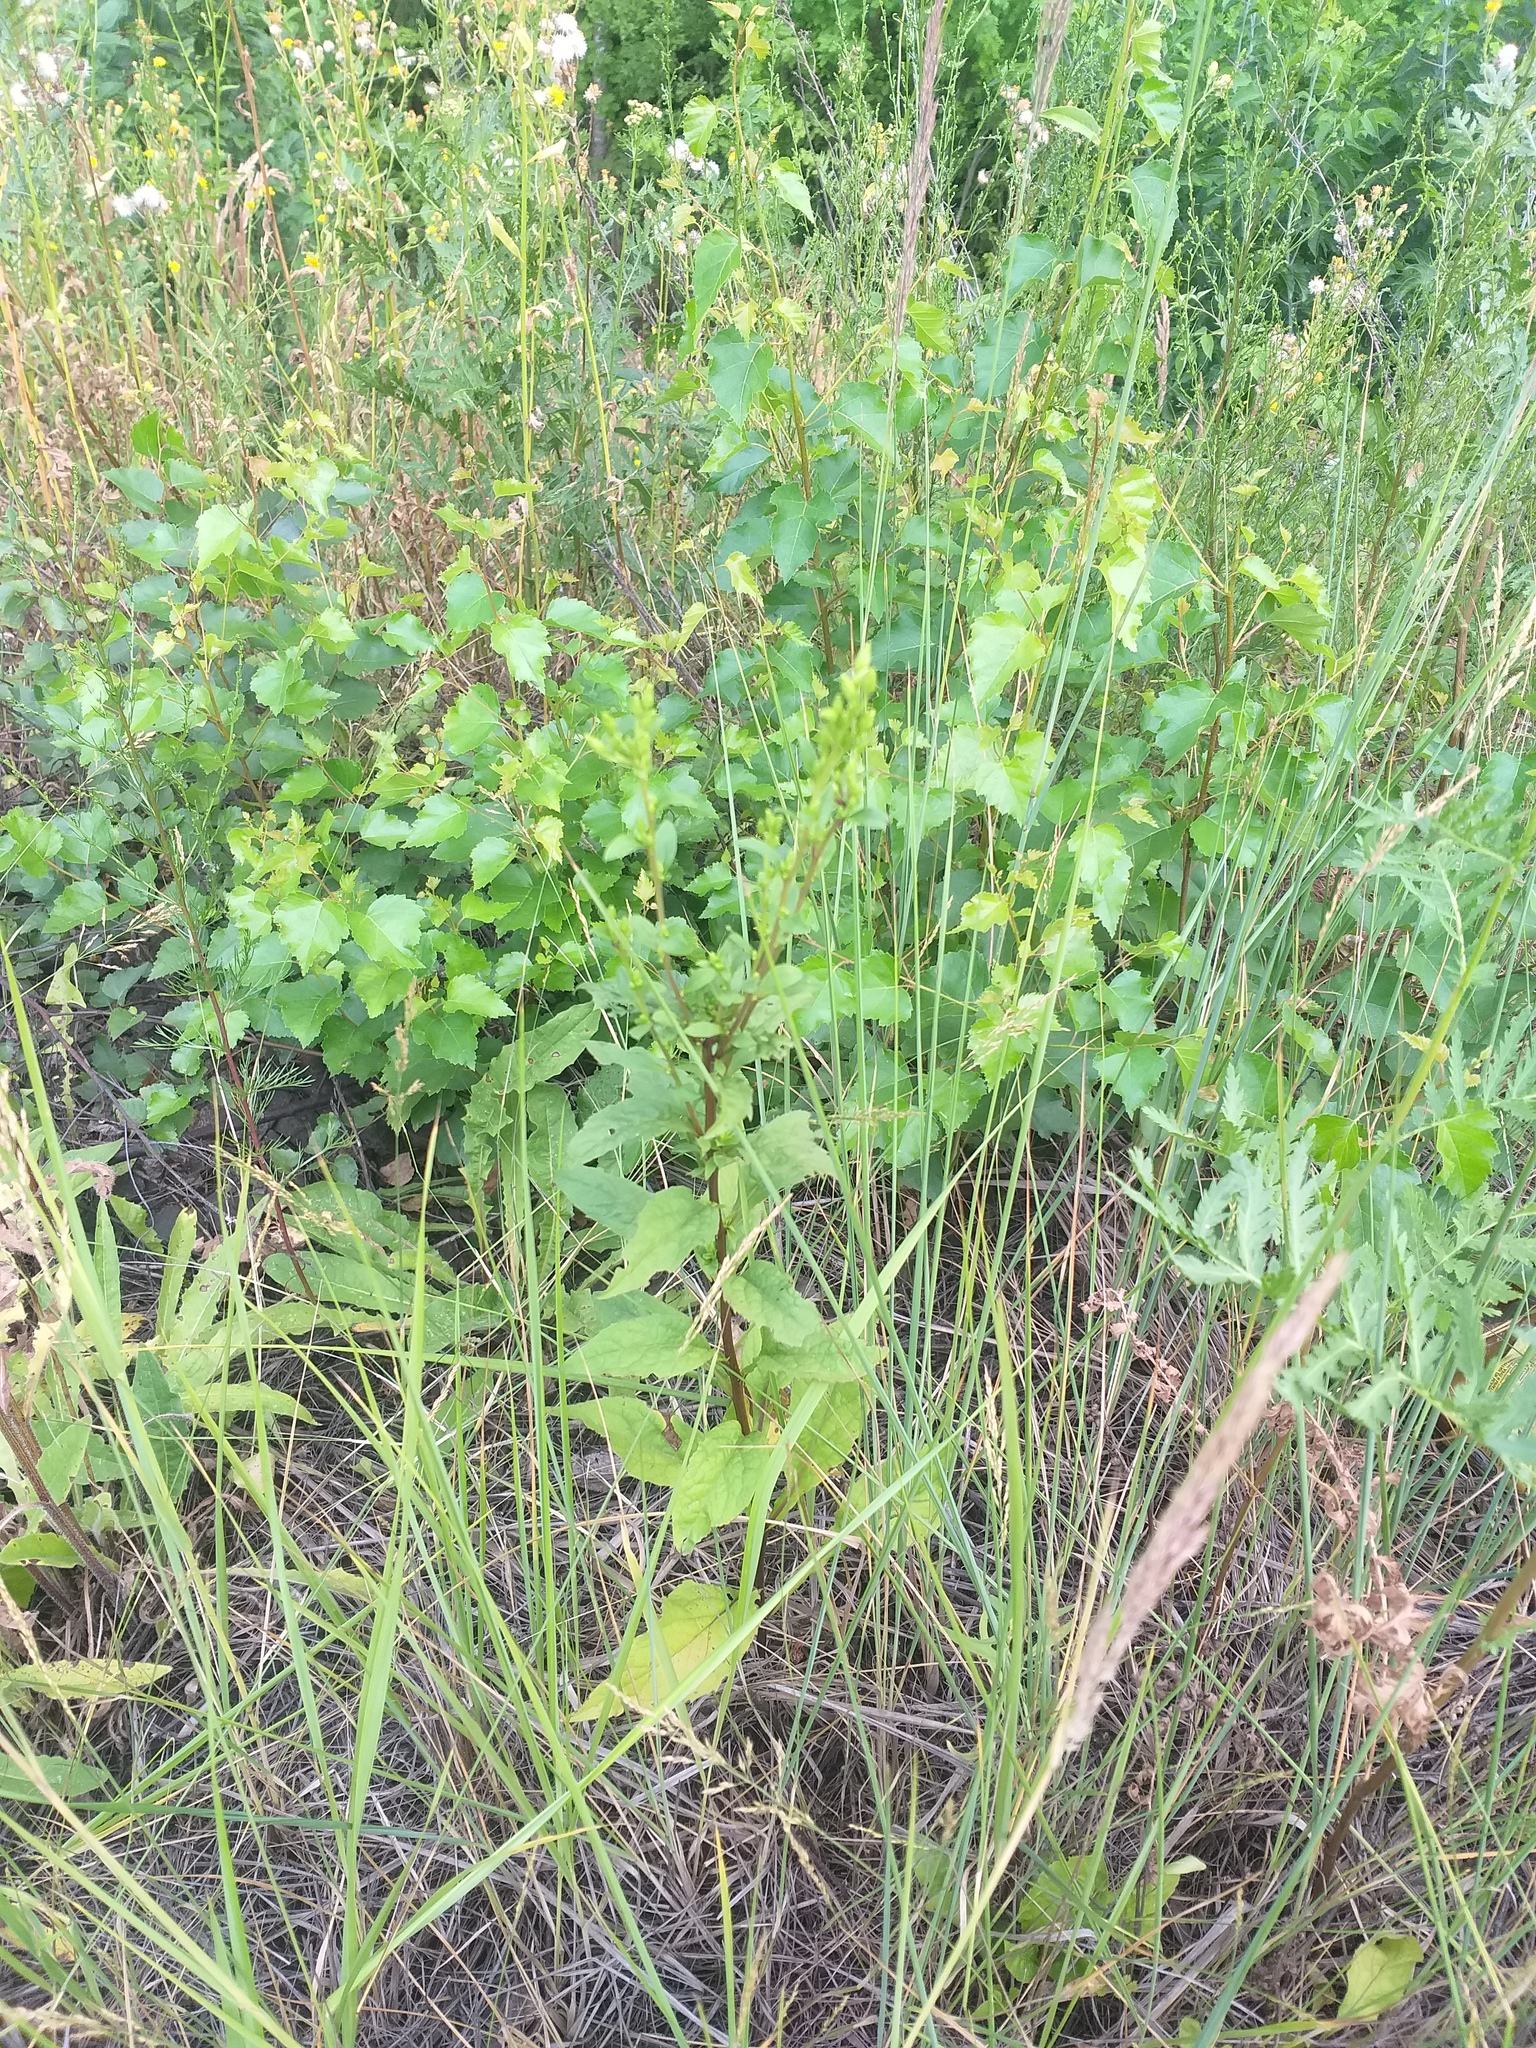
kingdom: Plantae
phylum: Tracheophyta
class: Magnoliopsida
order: Asterales
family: Asteraceae
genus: Solidago
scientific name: Solidago virgaurea
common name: Goldenrod
